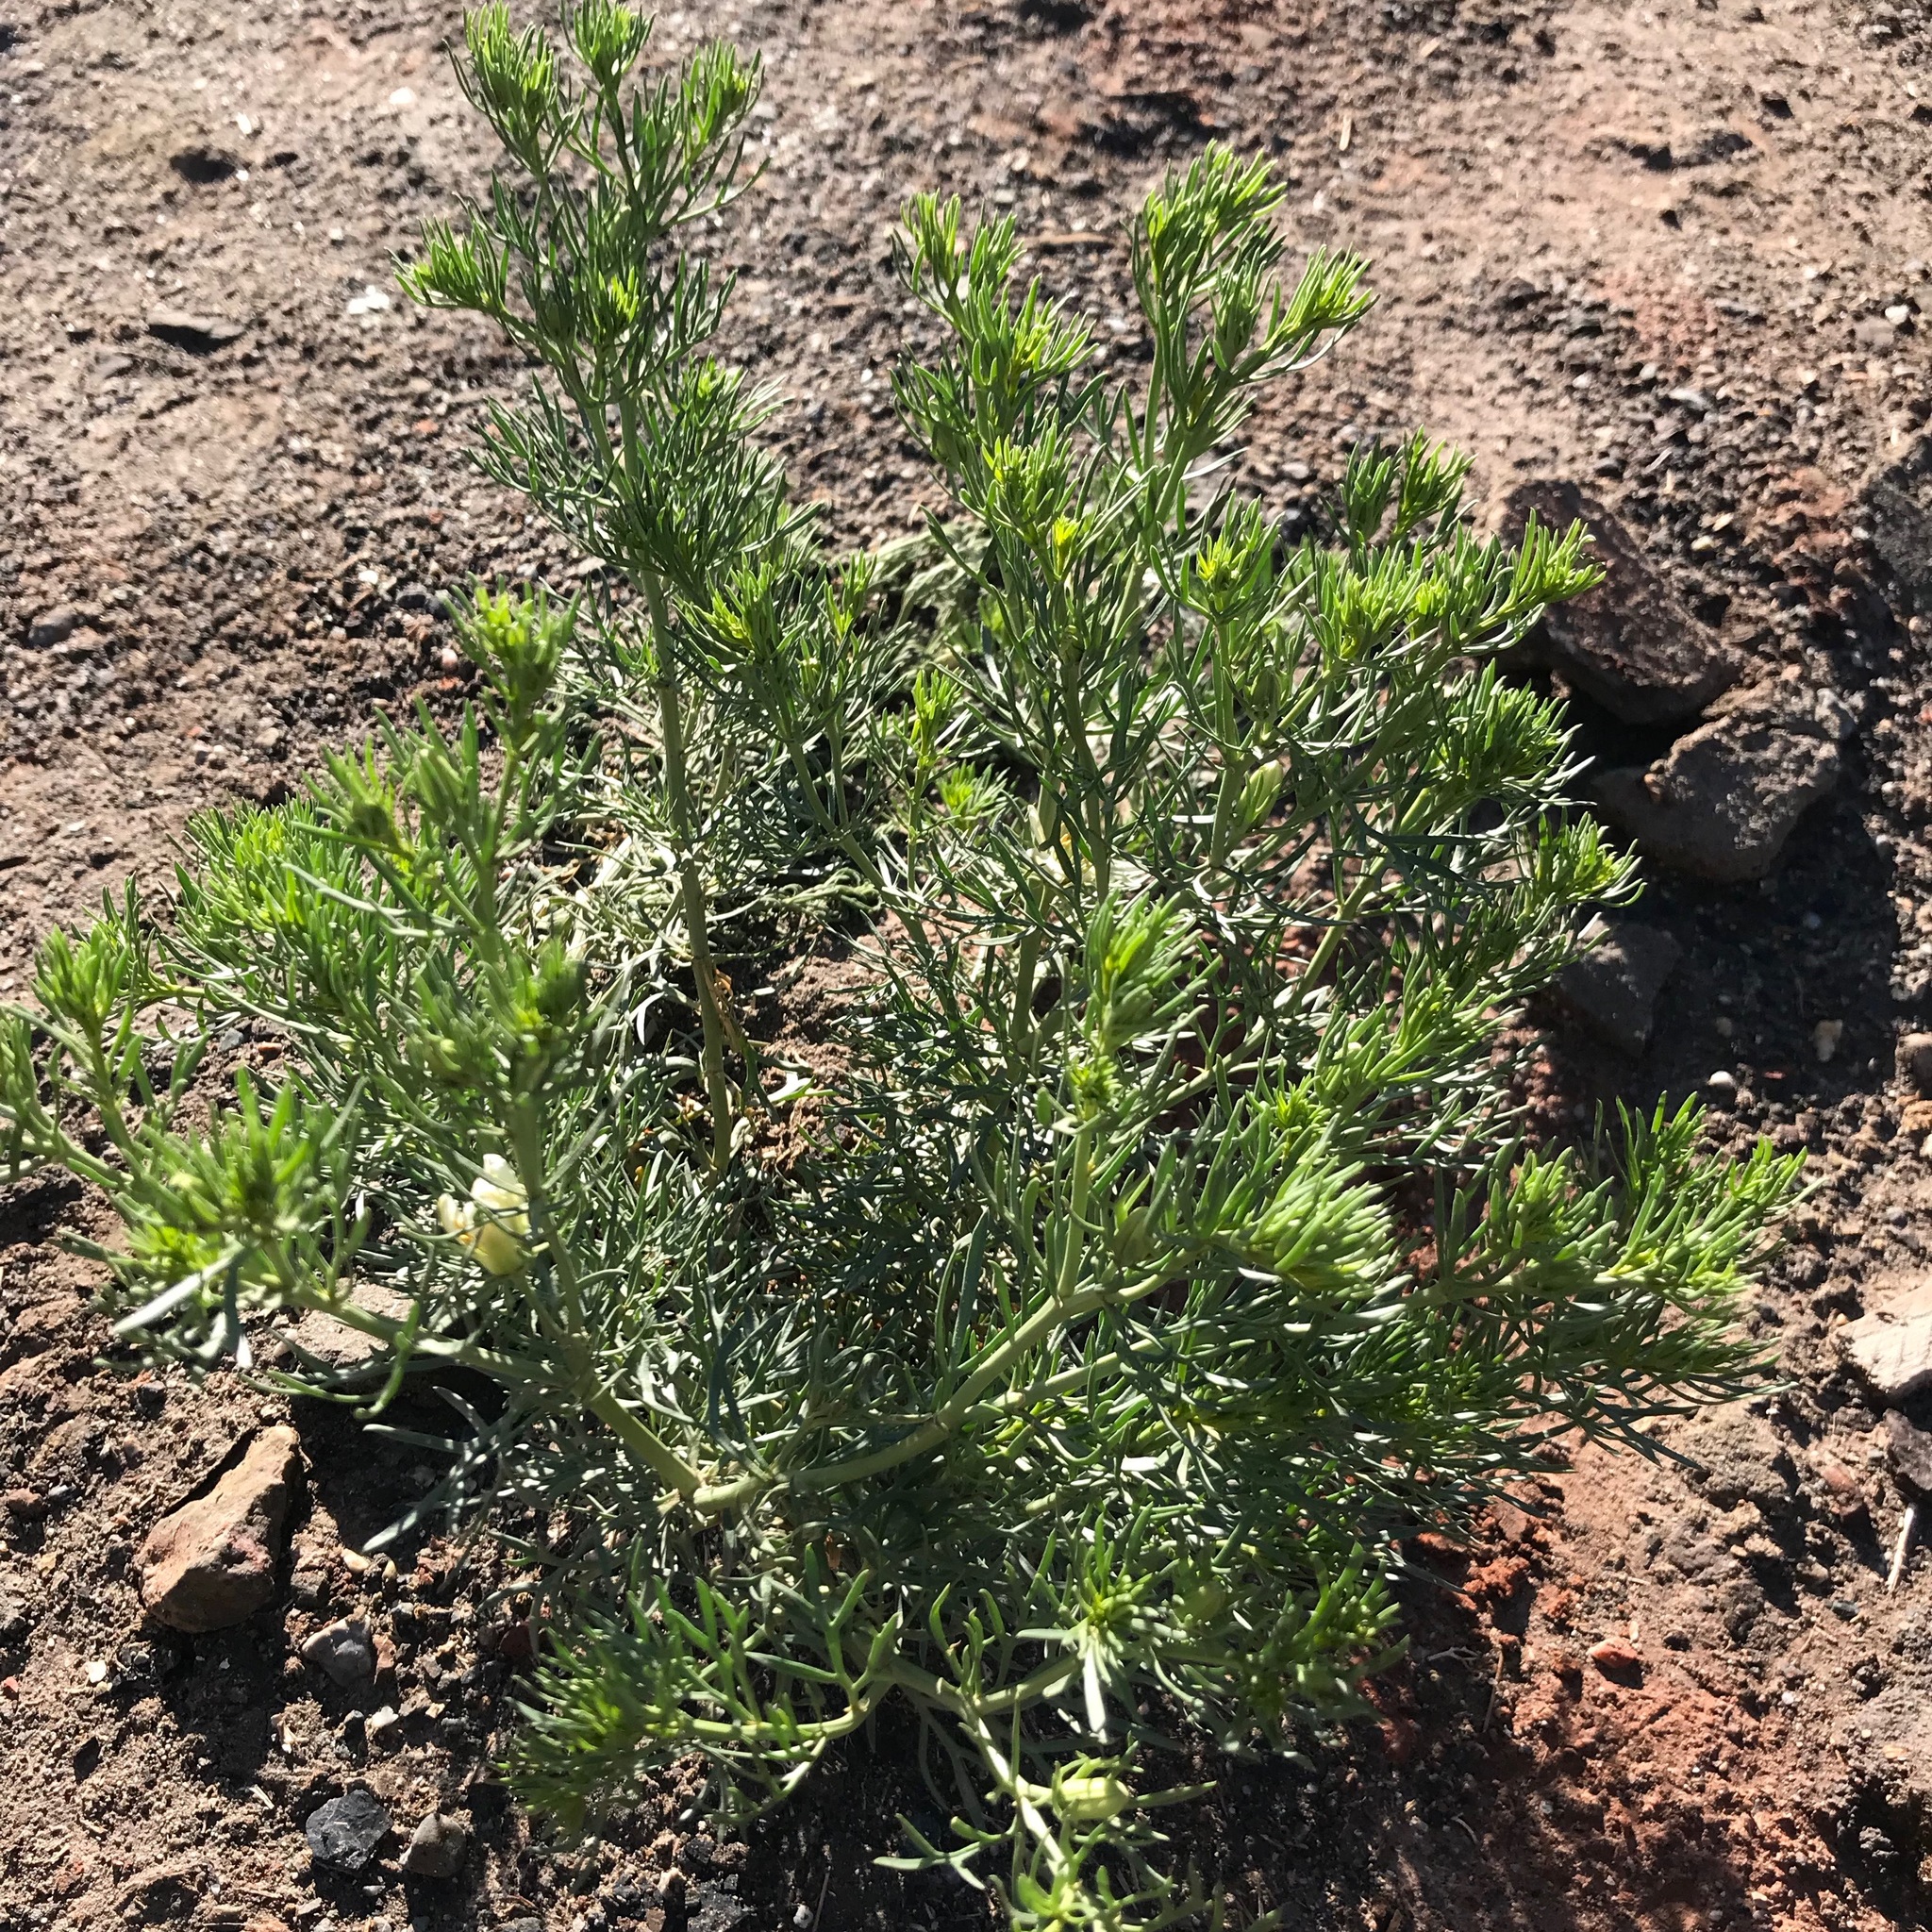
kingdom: Plantae
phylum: Tracheophyta
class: Magnoliopsida
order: Sapindales
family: Tetradiclidaceae
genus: Peganum
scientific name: Peganum harmala
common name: Harmal peganum
